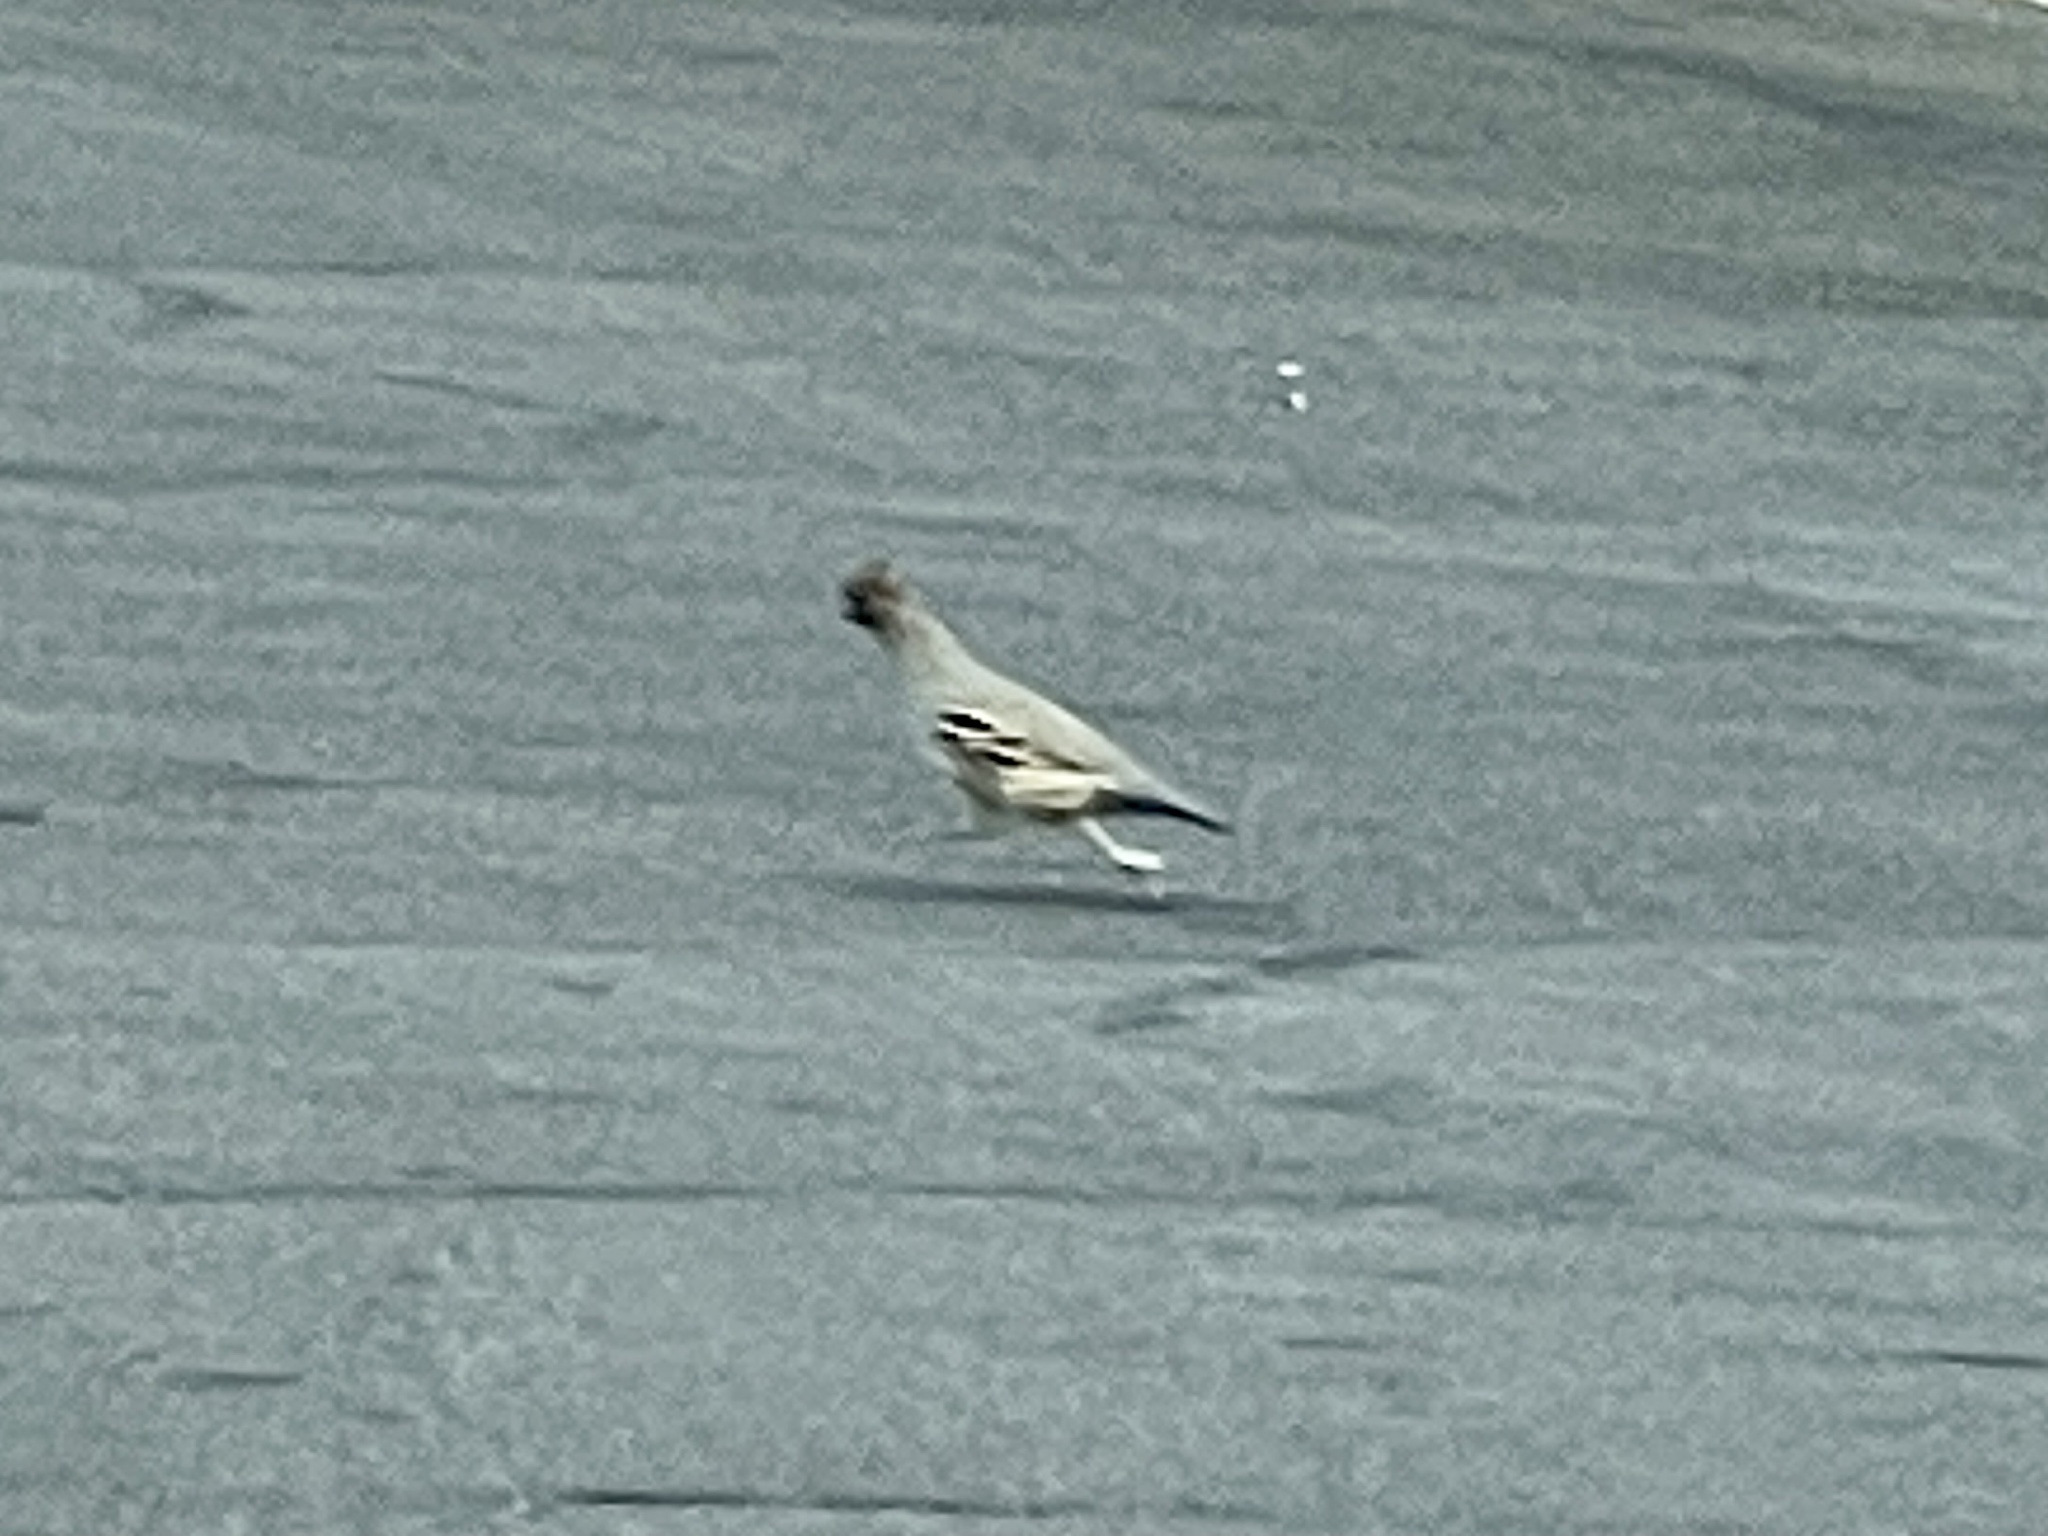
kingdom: Animalia
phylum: Chordata
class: Aves
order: Galliformes
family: Odontophoridae
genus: Callipepla
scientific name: Callipepla gambelii
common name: Gambel's quail
